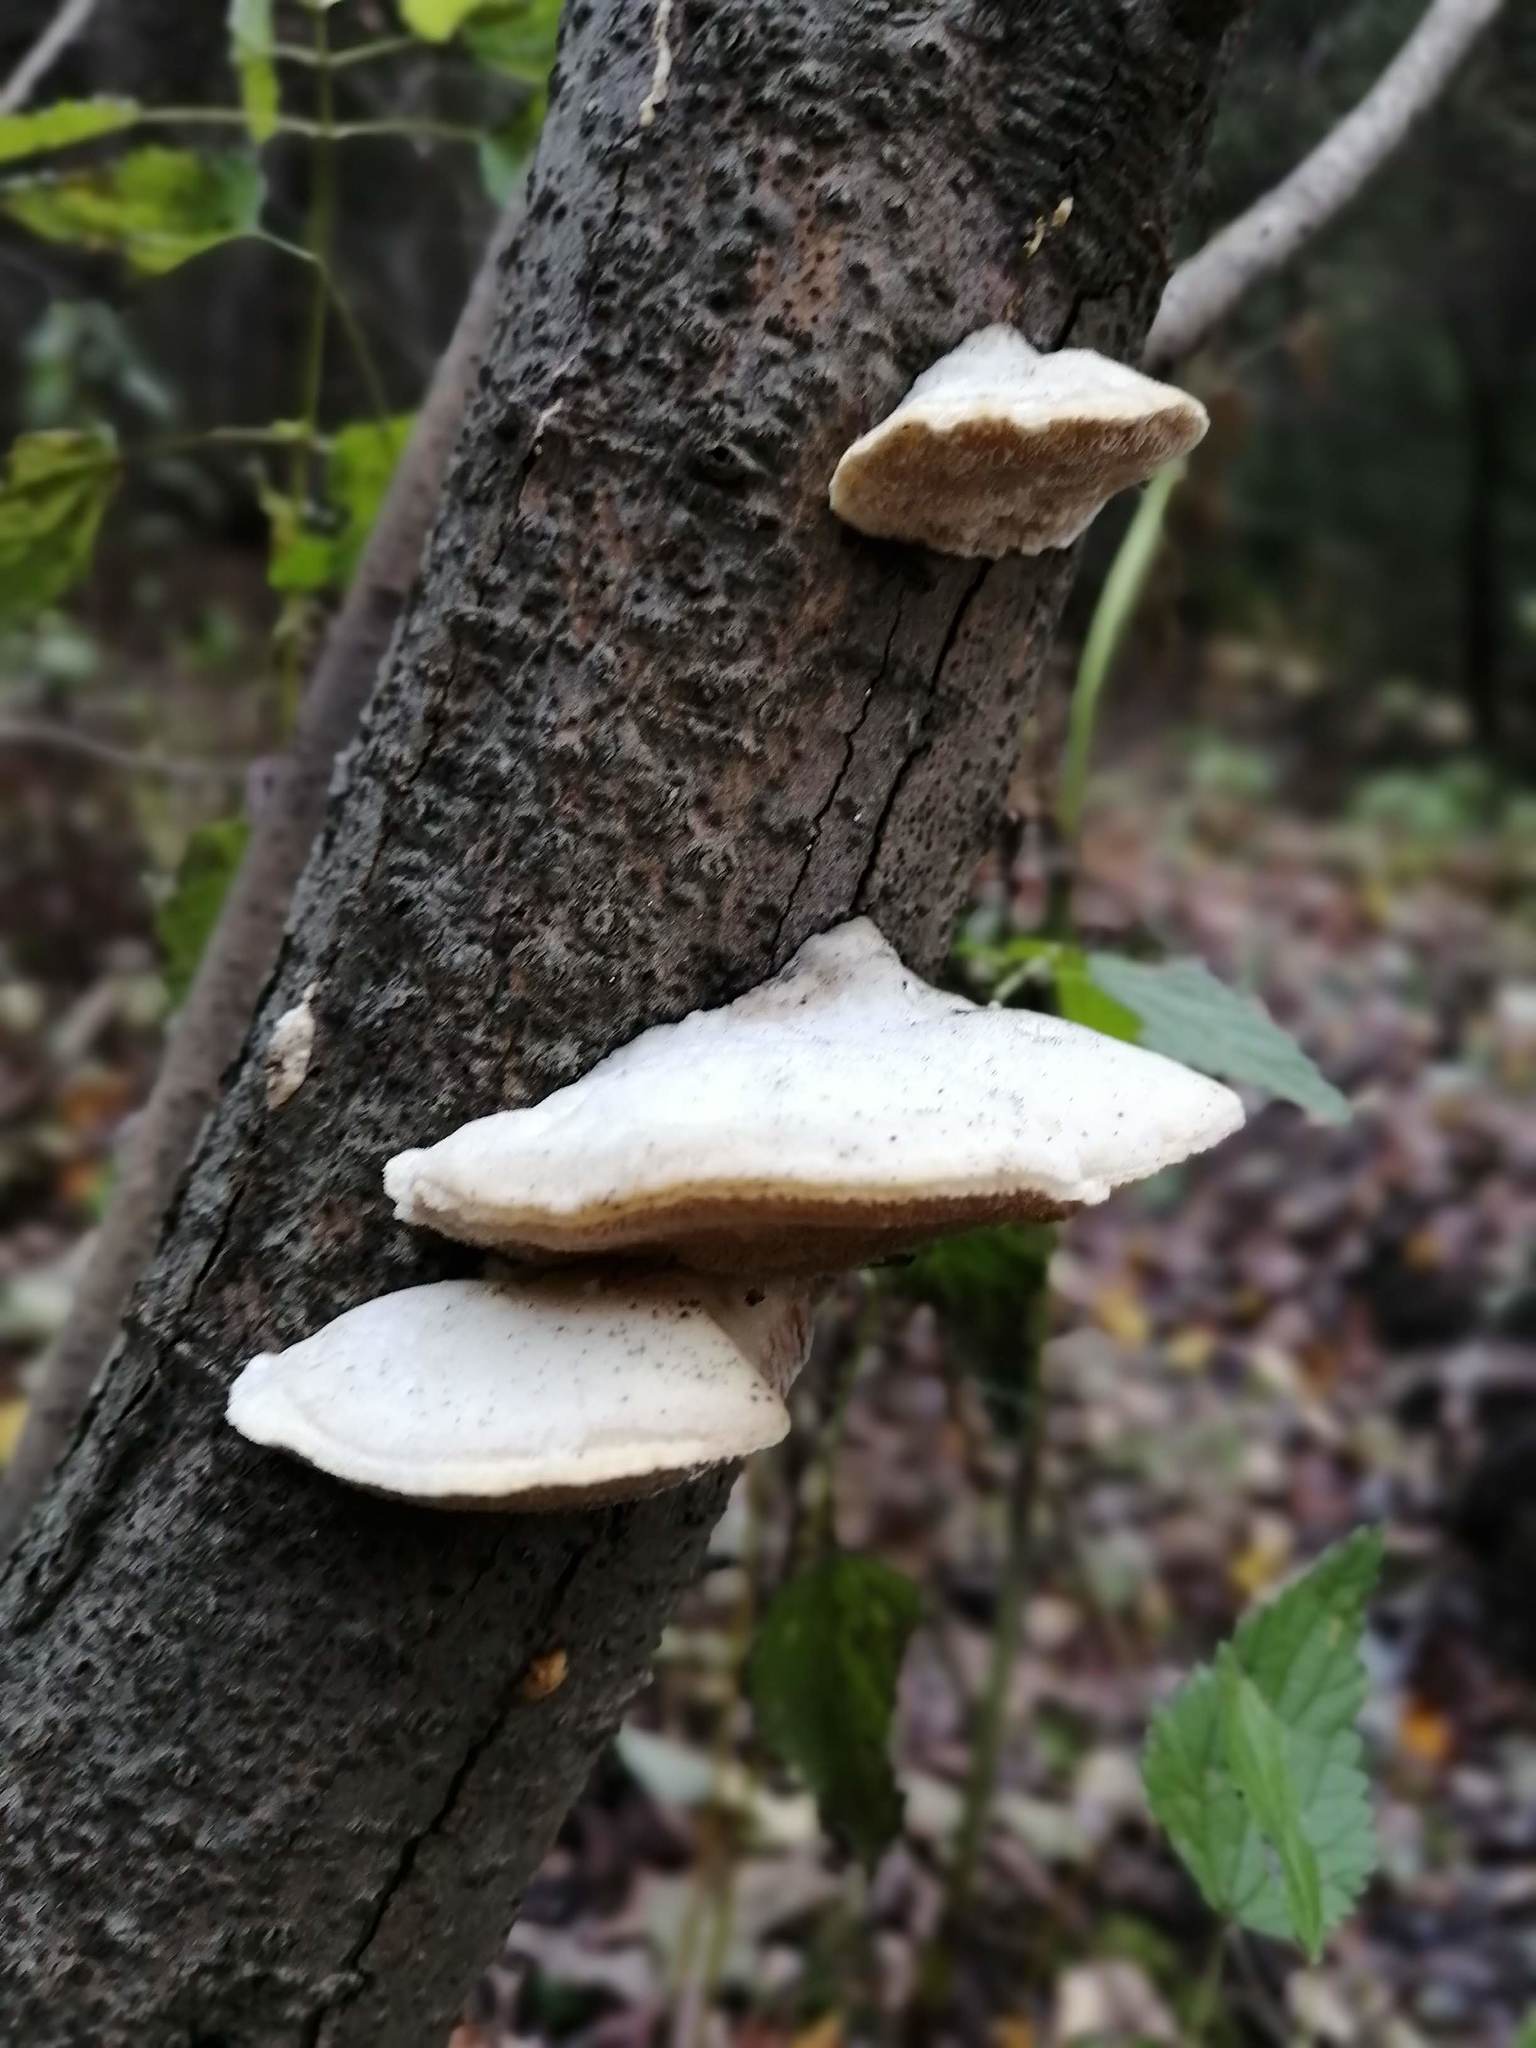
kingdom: Fungi
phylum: Basidiomycota
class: Agaricomycetes
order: Polyporales
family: Polyporaceae
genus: Trametes
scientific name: Trametes suaveolens
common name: Fragrant bracket
